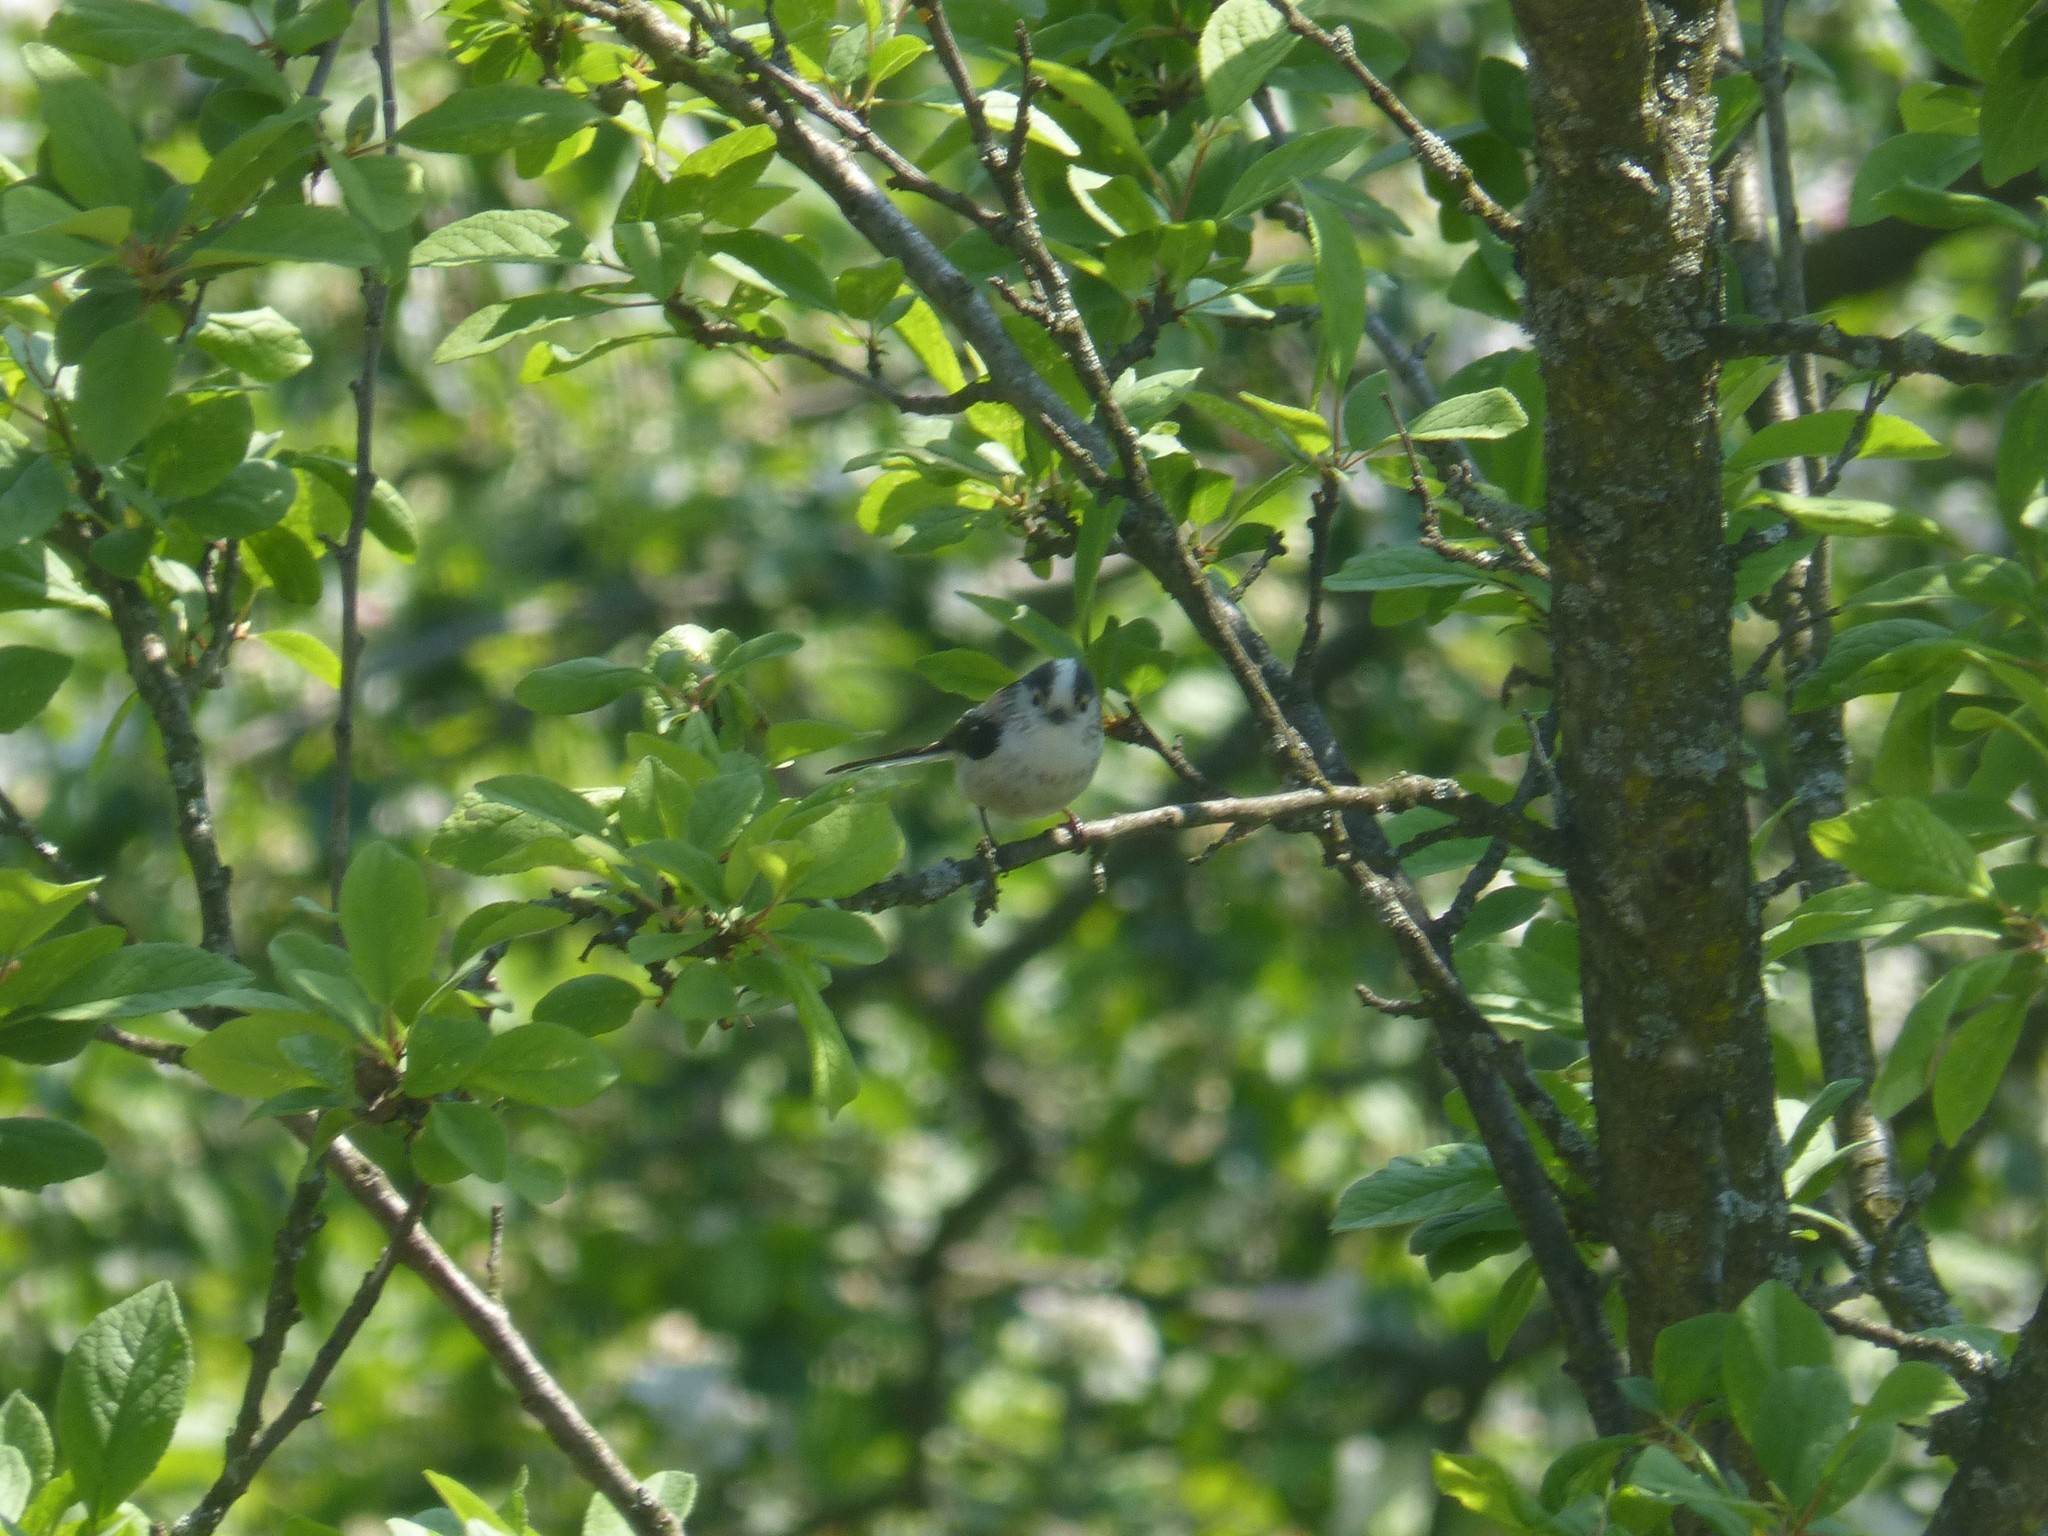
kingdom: Animalia
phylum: Chordata
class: Aves
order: Passeriformes
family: Aegithalidae
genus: Aegithalos
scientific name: Aegithalos caudatus
